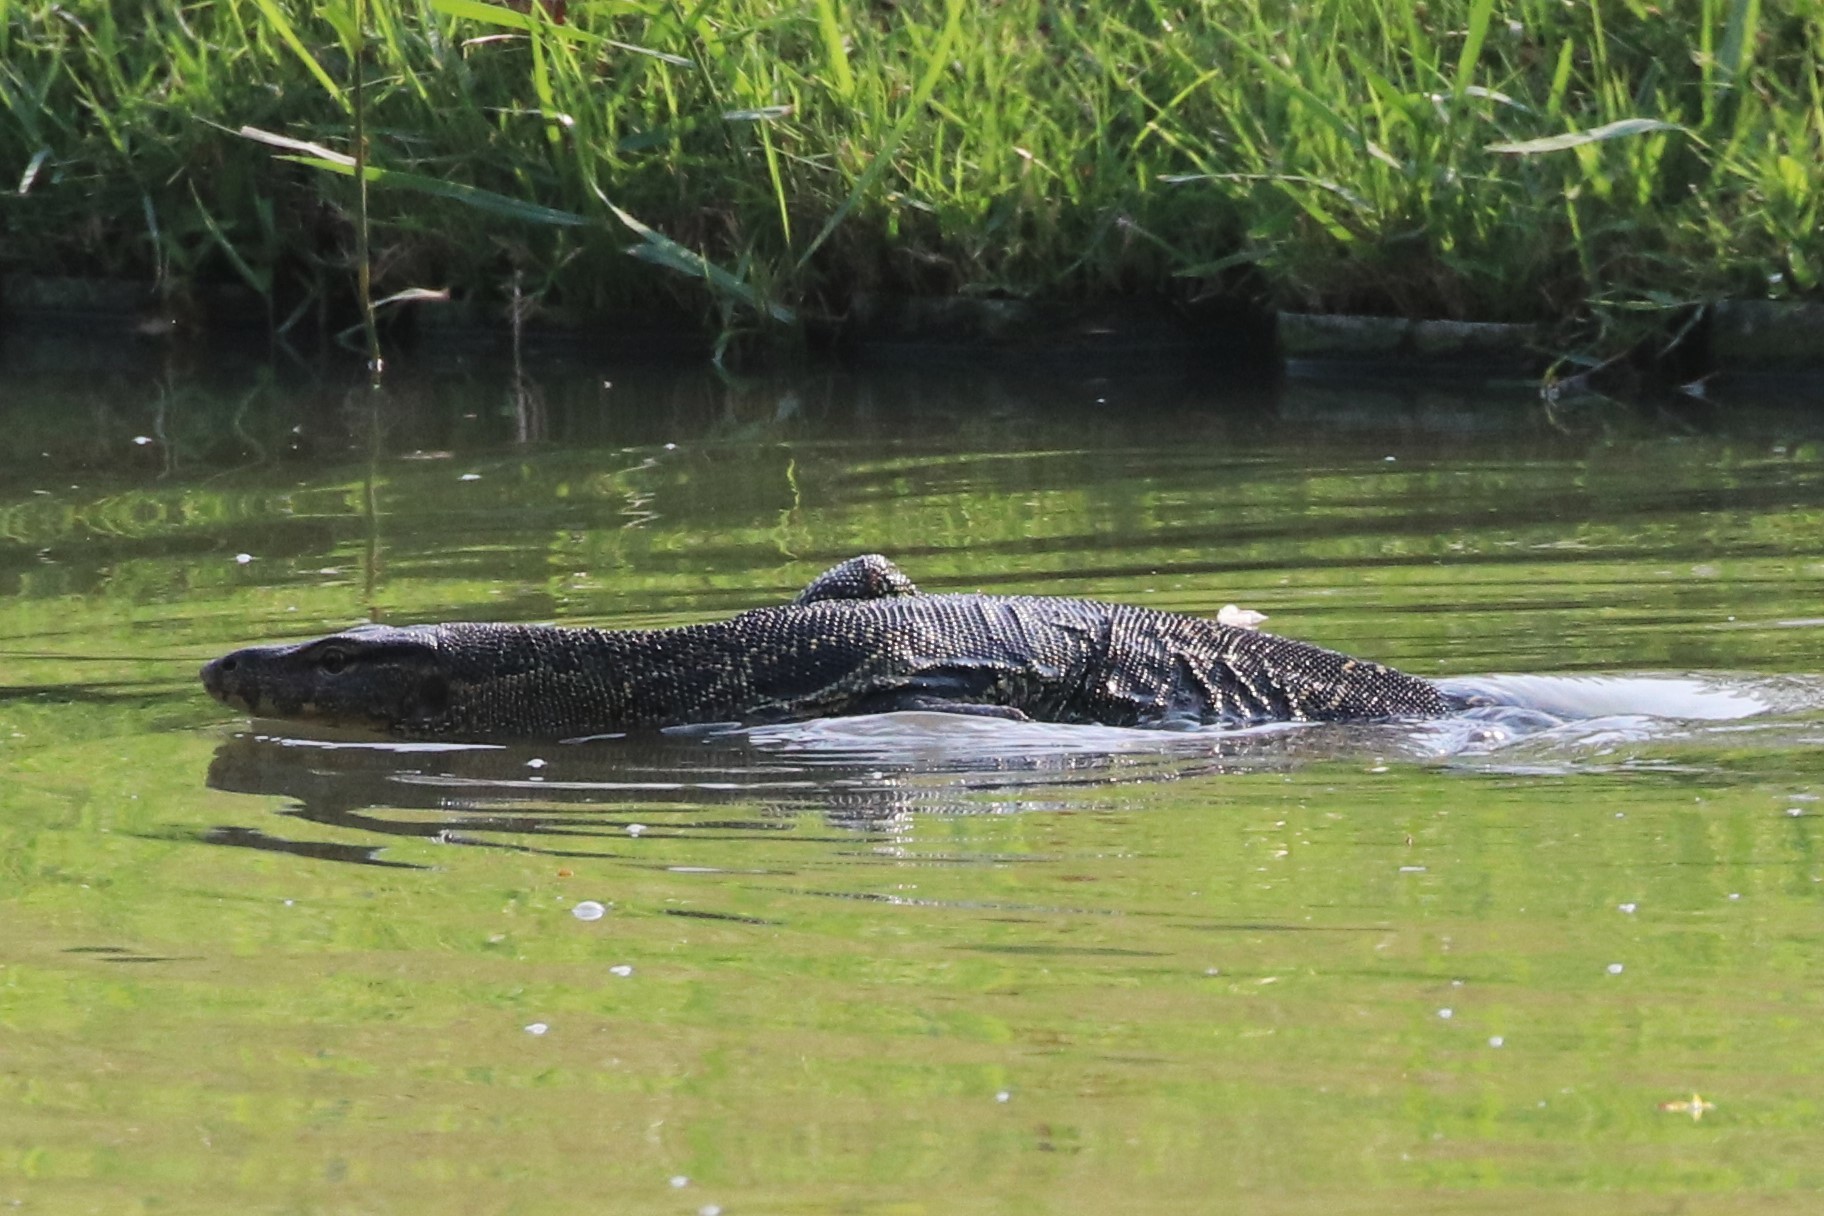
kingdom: Animalia
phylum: Chordata
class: Squamata
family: Varanidae
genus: Varanus
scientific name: Varanus salvator
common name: Common water monitor
